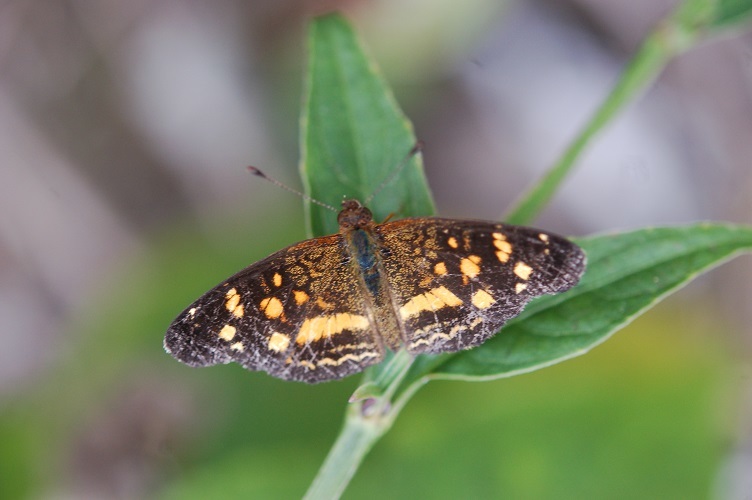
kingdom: Animalia
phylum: Arthropoda
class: Insecta
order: Lepidoptera
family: Nymphalidae
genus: Anthanassa
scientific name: Anthanassa tulcis
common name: Pale-banded crescent
